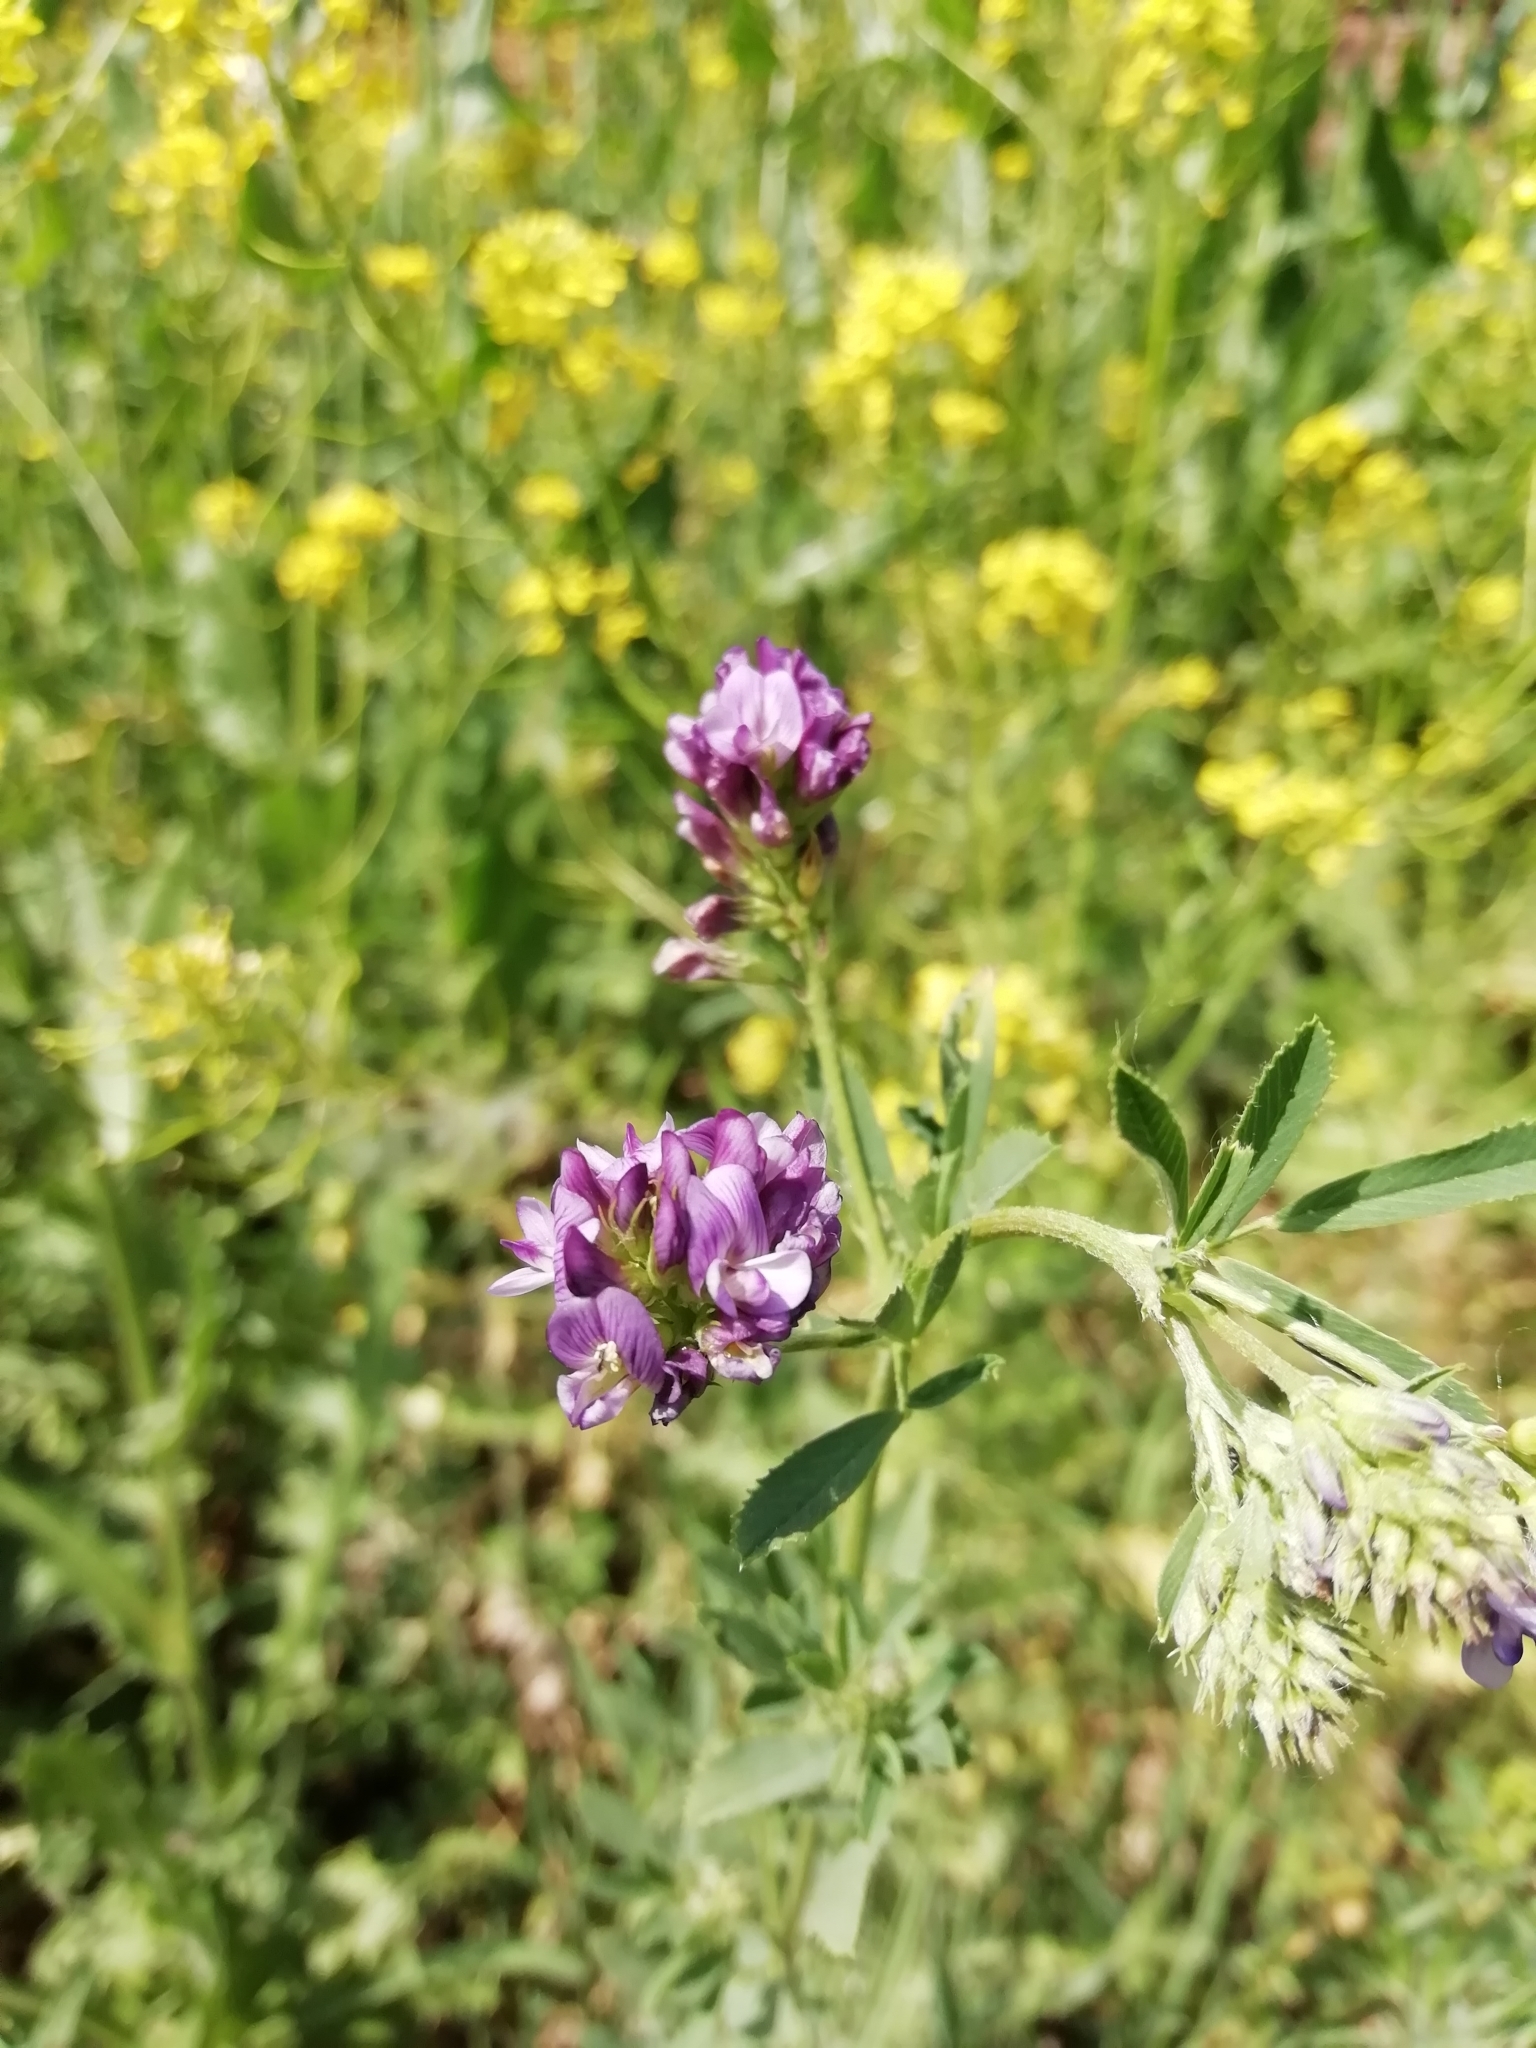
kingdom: Plantae
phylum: Tracheophyta
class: Magnoliopsida
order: Fabales
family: Fabaceae
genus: Medicago
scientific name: Medicago sativa
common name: Alfalfa
